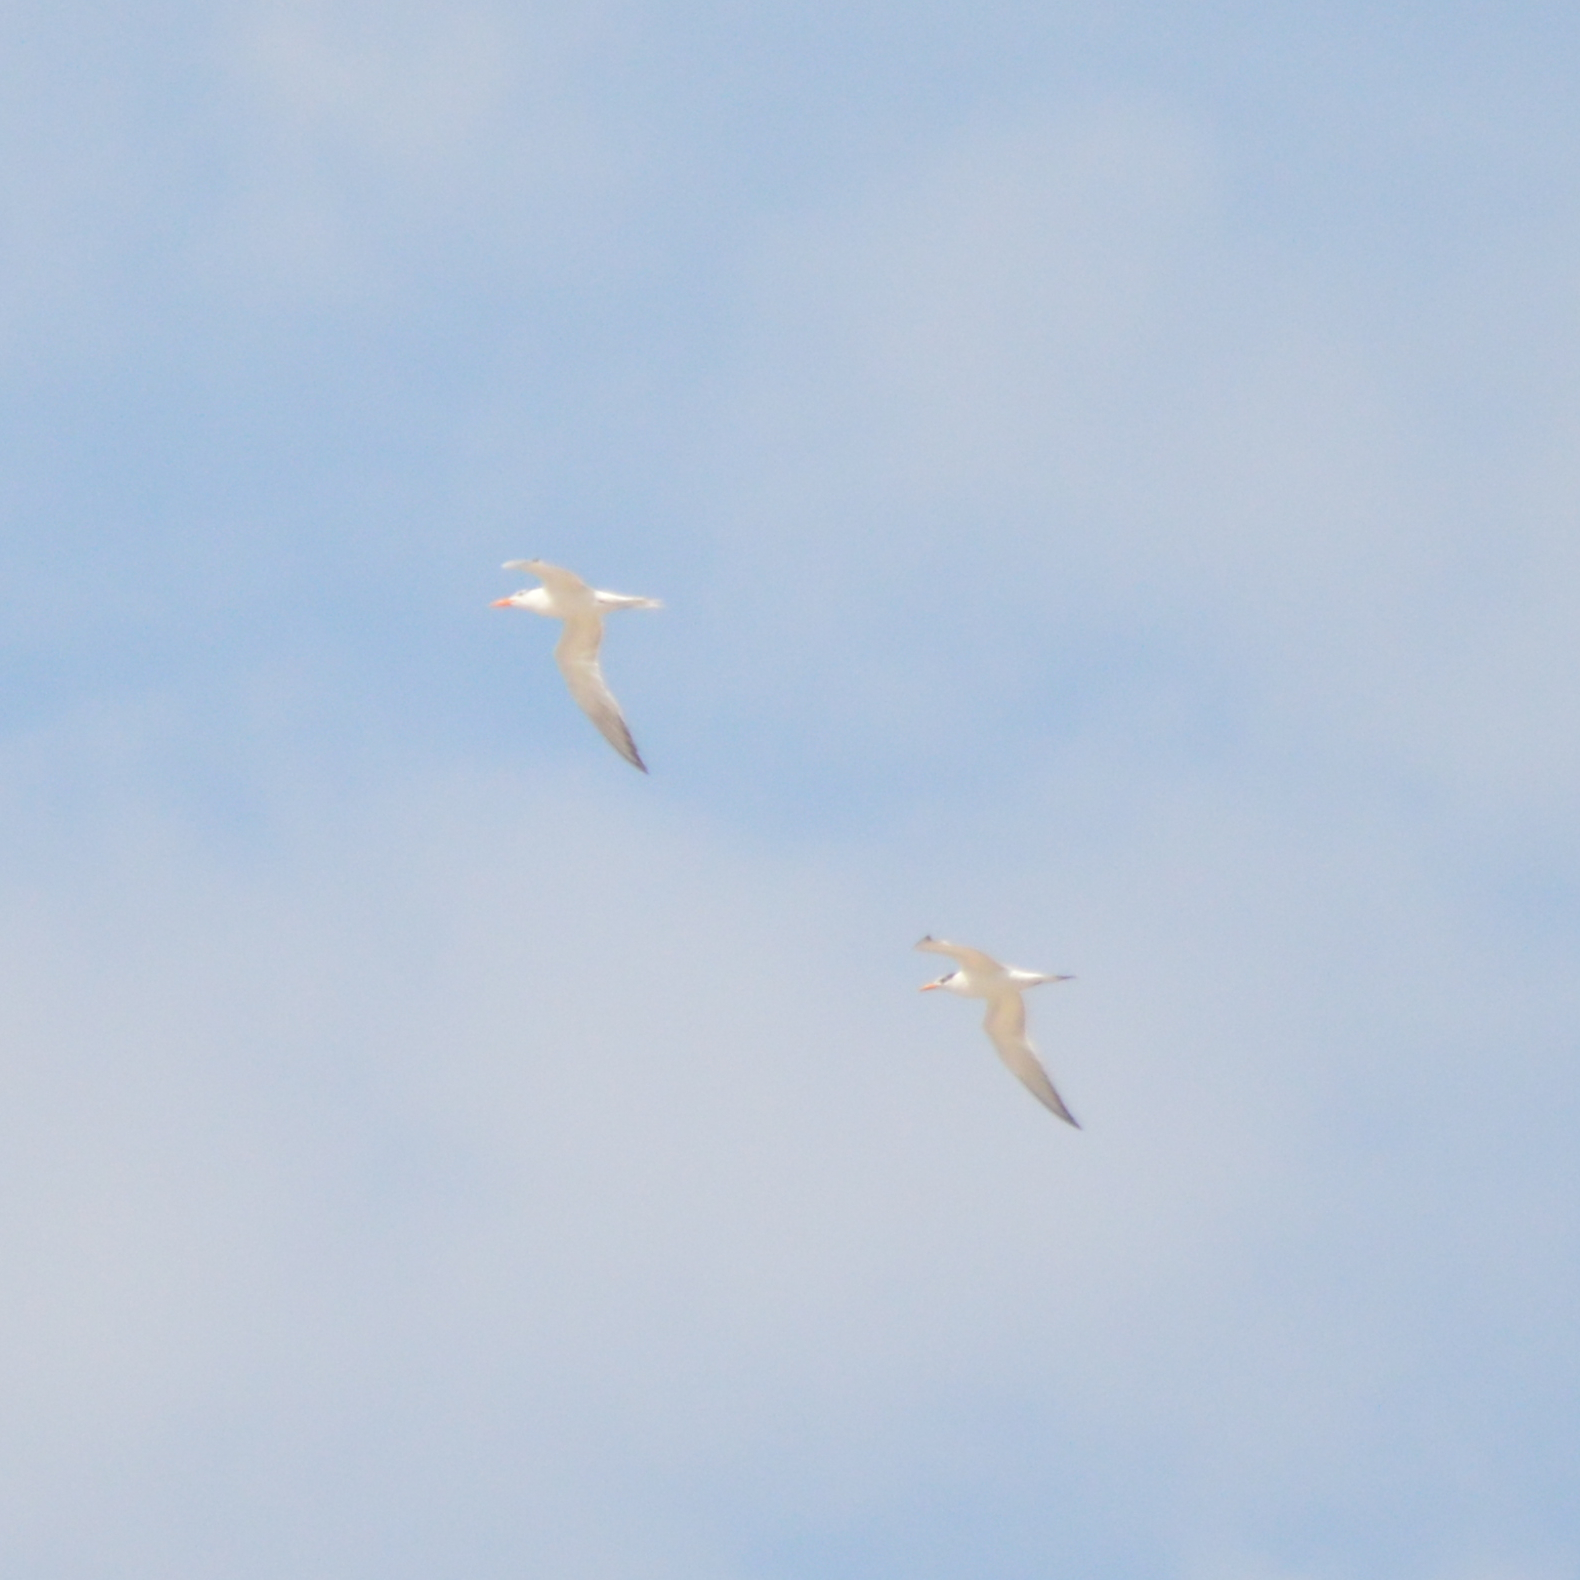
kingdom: Animalia
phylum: Chordata
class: Aves
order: Charadriiformes
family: Laridae
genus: Thalasseus
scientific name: Thalasseus maximus
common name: Royal tern
